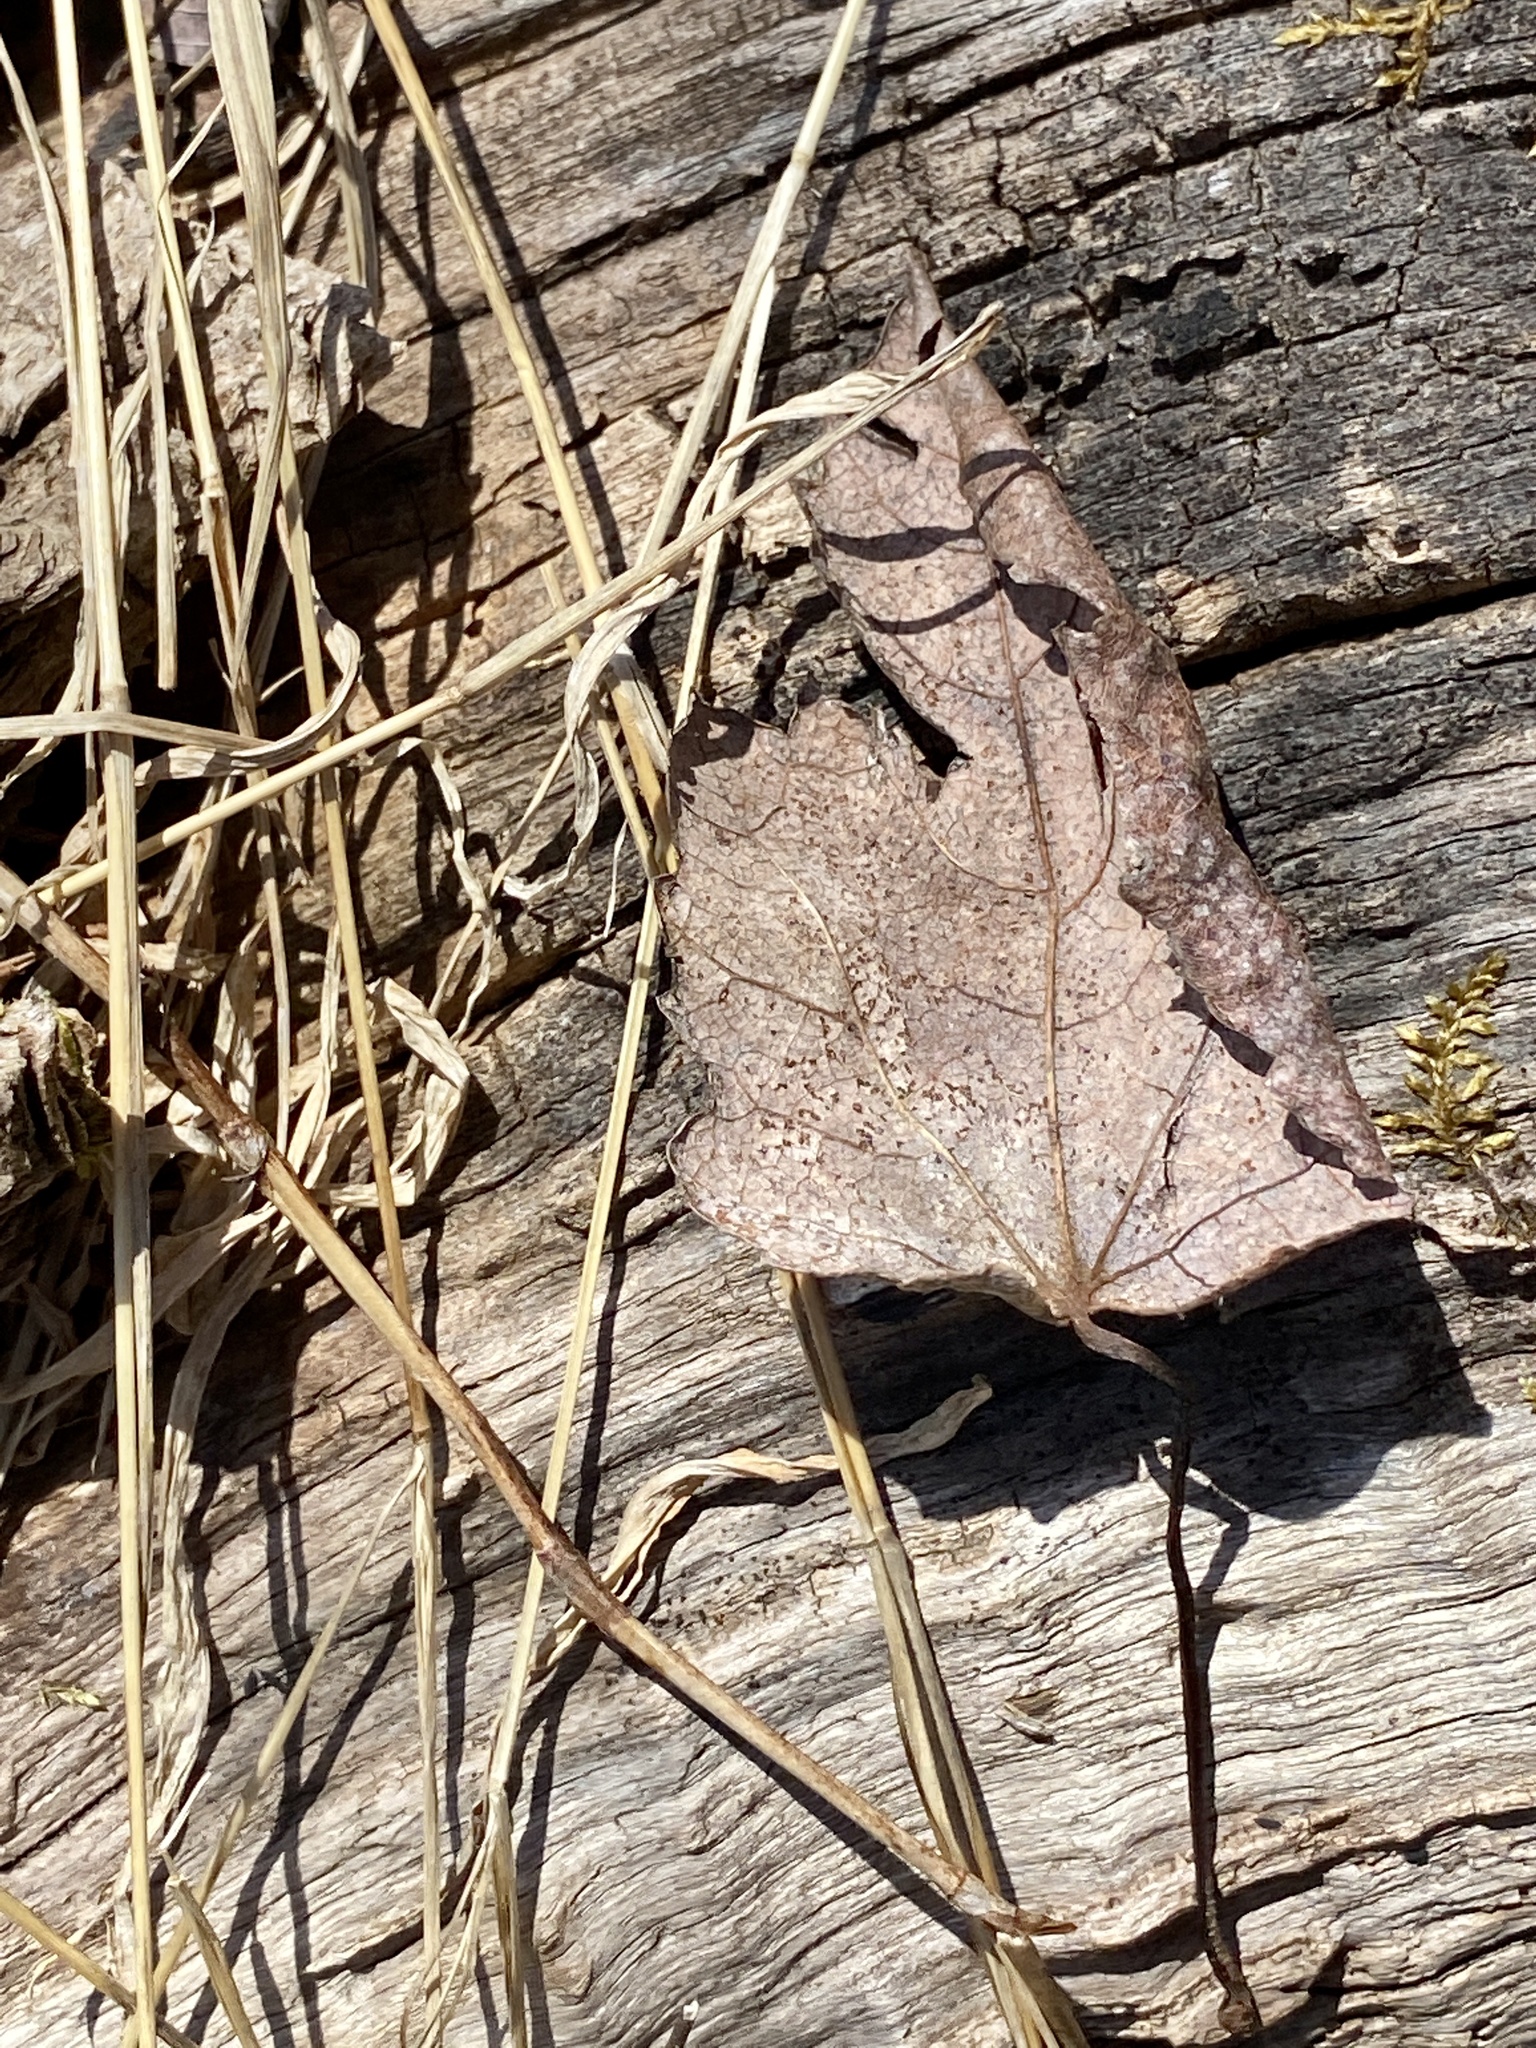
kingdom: Plantae
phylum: Tracheophyta
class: Magnoliopsida
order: Sapindales
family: Sapindaceae
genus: Acer
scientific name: Acer rubrum
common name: Red maple
